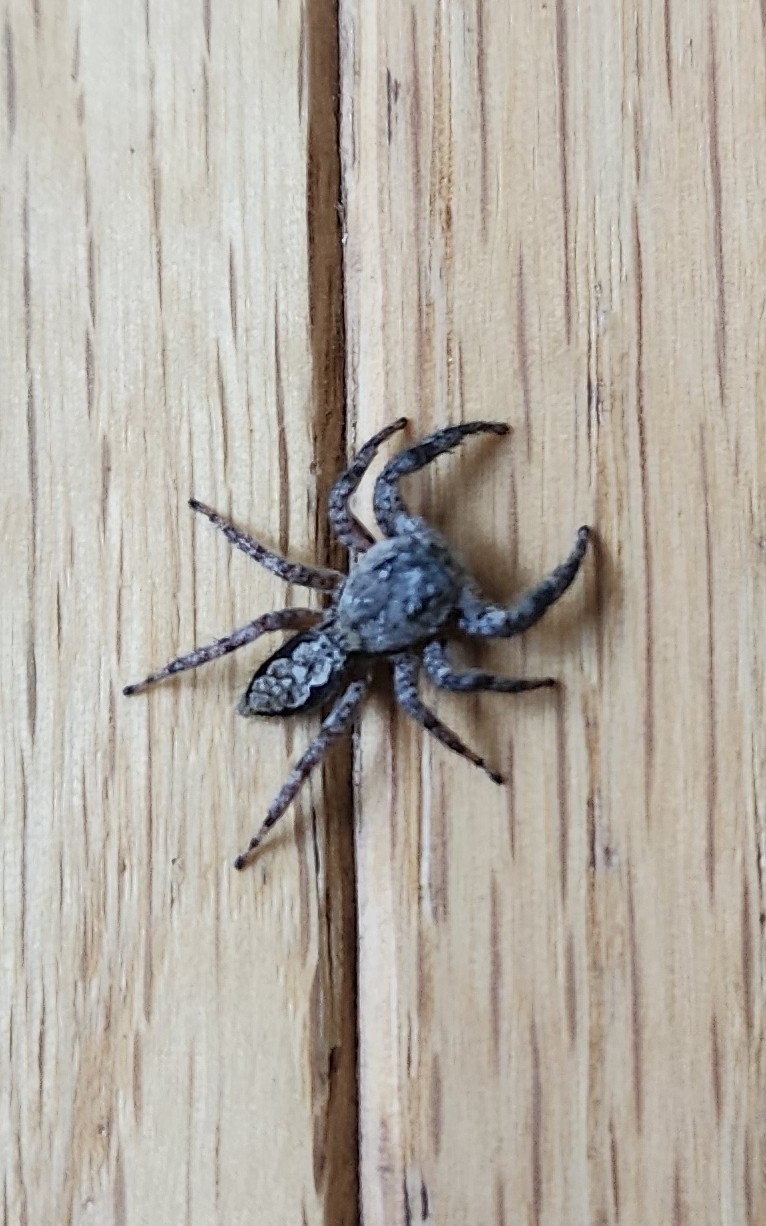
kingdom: Animalia
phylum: Arthropoda
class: Arachnida
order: Araneae
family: Salticidae
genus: Platycryptus
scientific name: Platycryptus undatus
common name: Tan jumping spider
